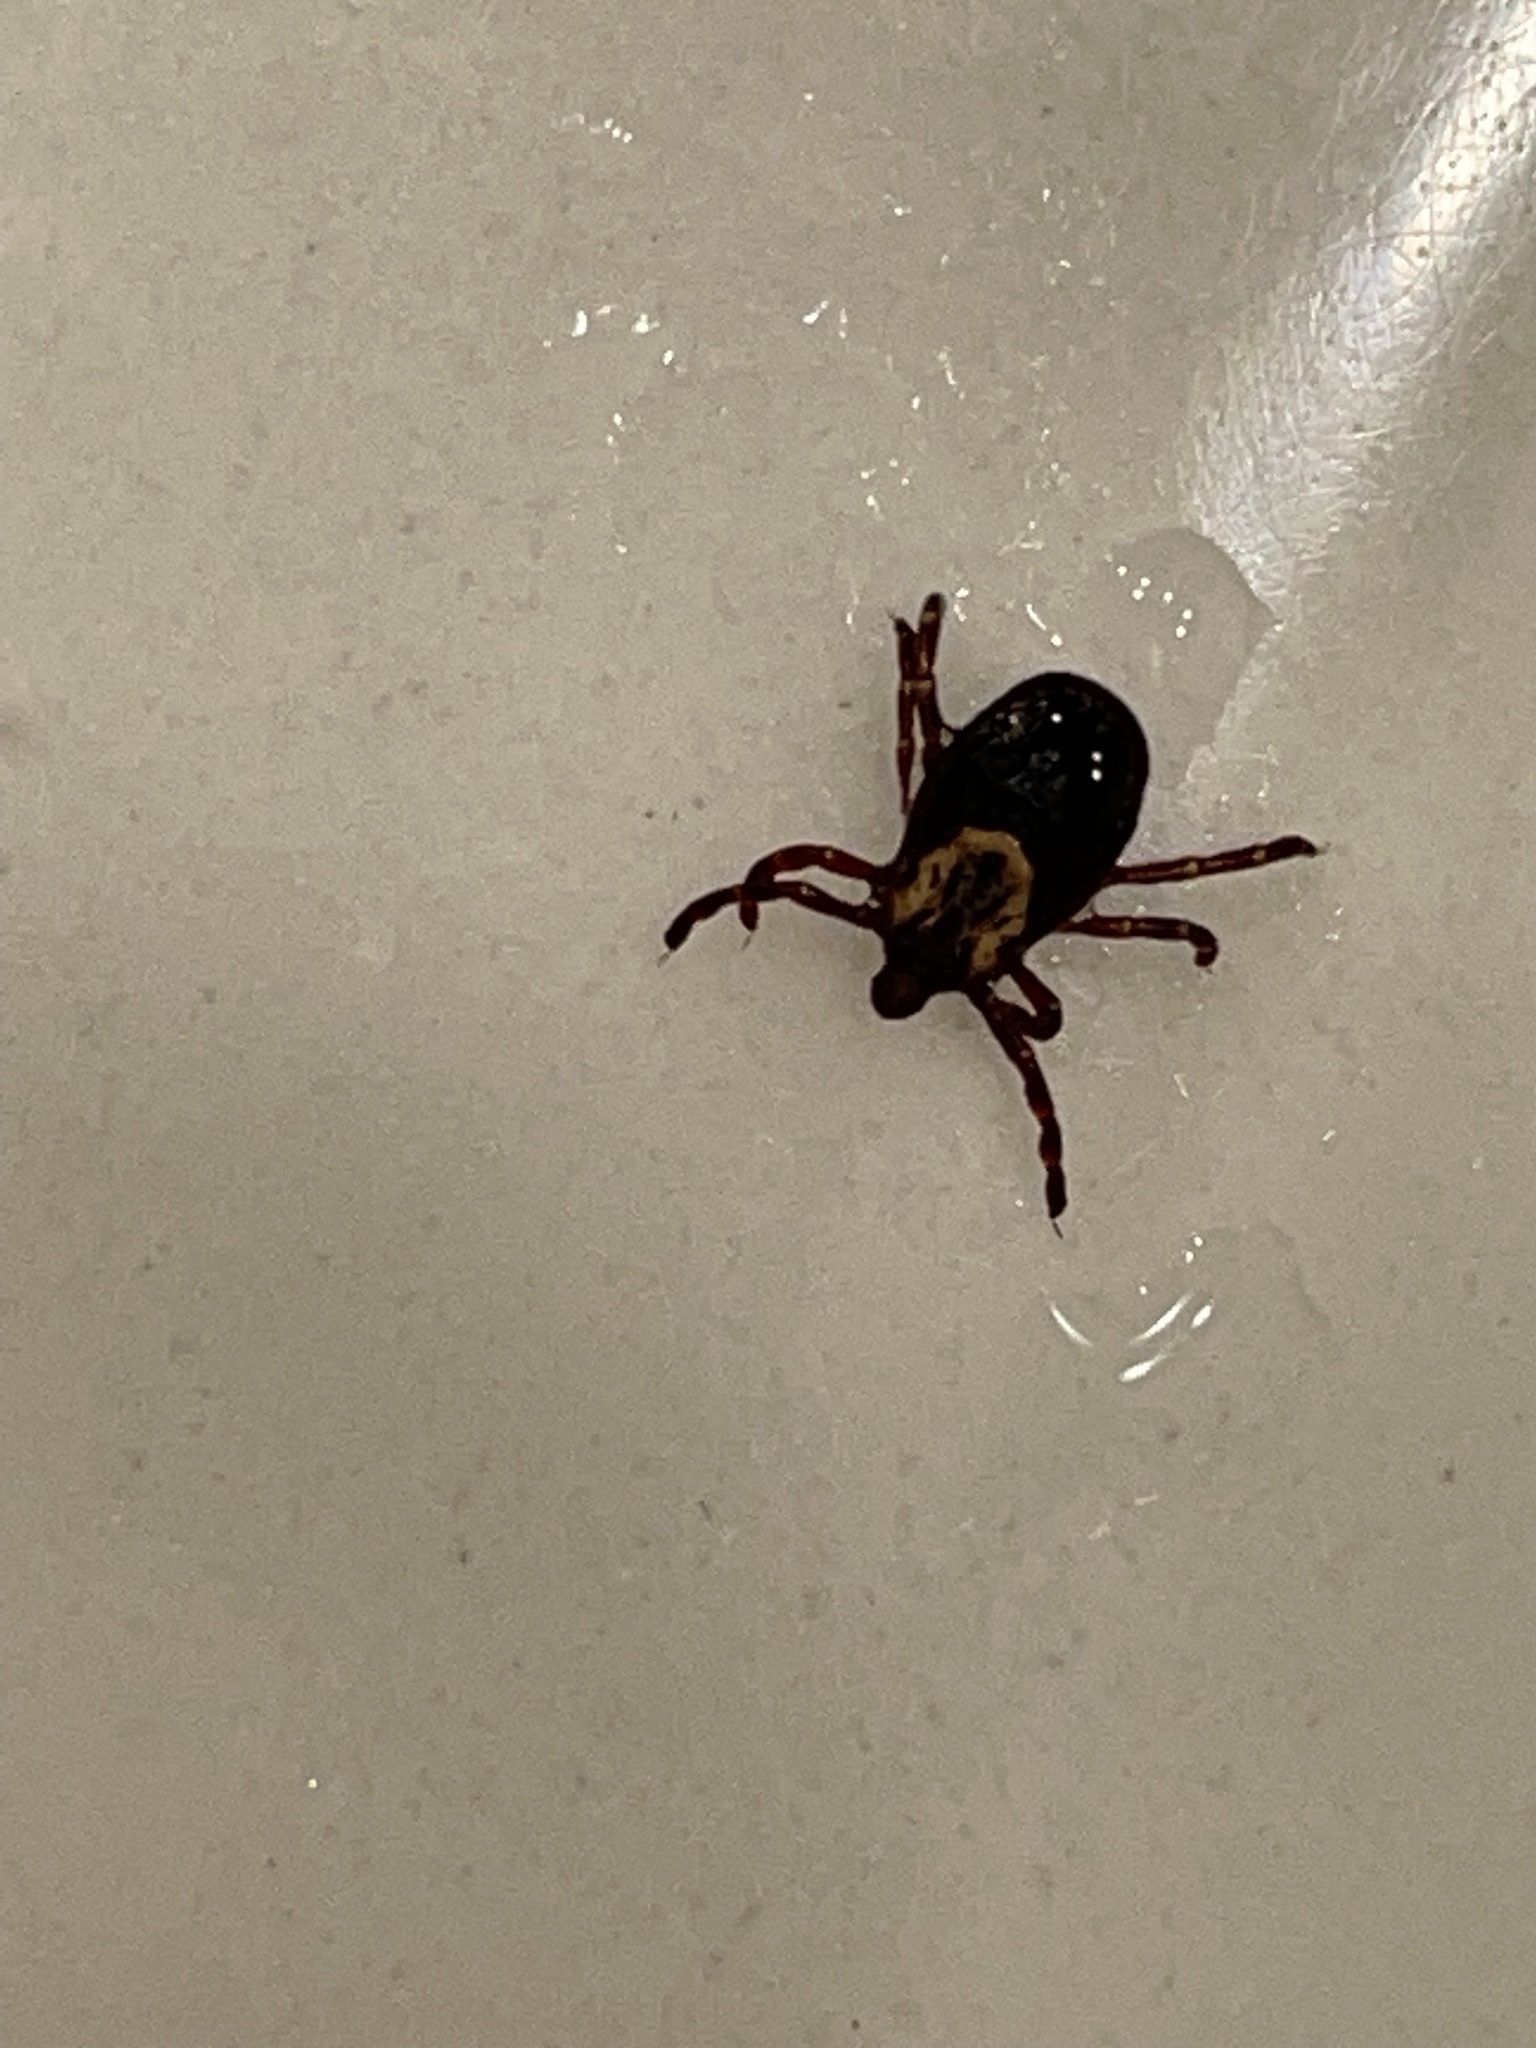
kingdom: Animalia
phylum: Arthropoda
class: Arachnida
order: Ixodida
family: Ixodidae
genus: Dermacentor
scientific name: Dermacentor variabilis
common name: American dog tick
